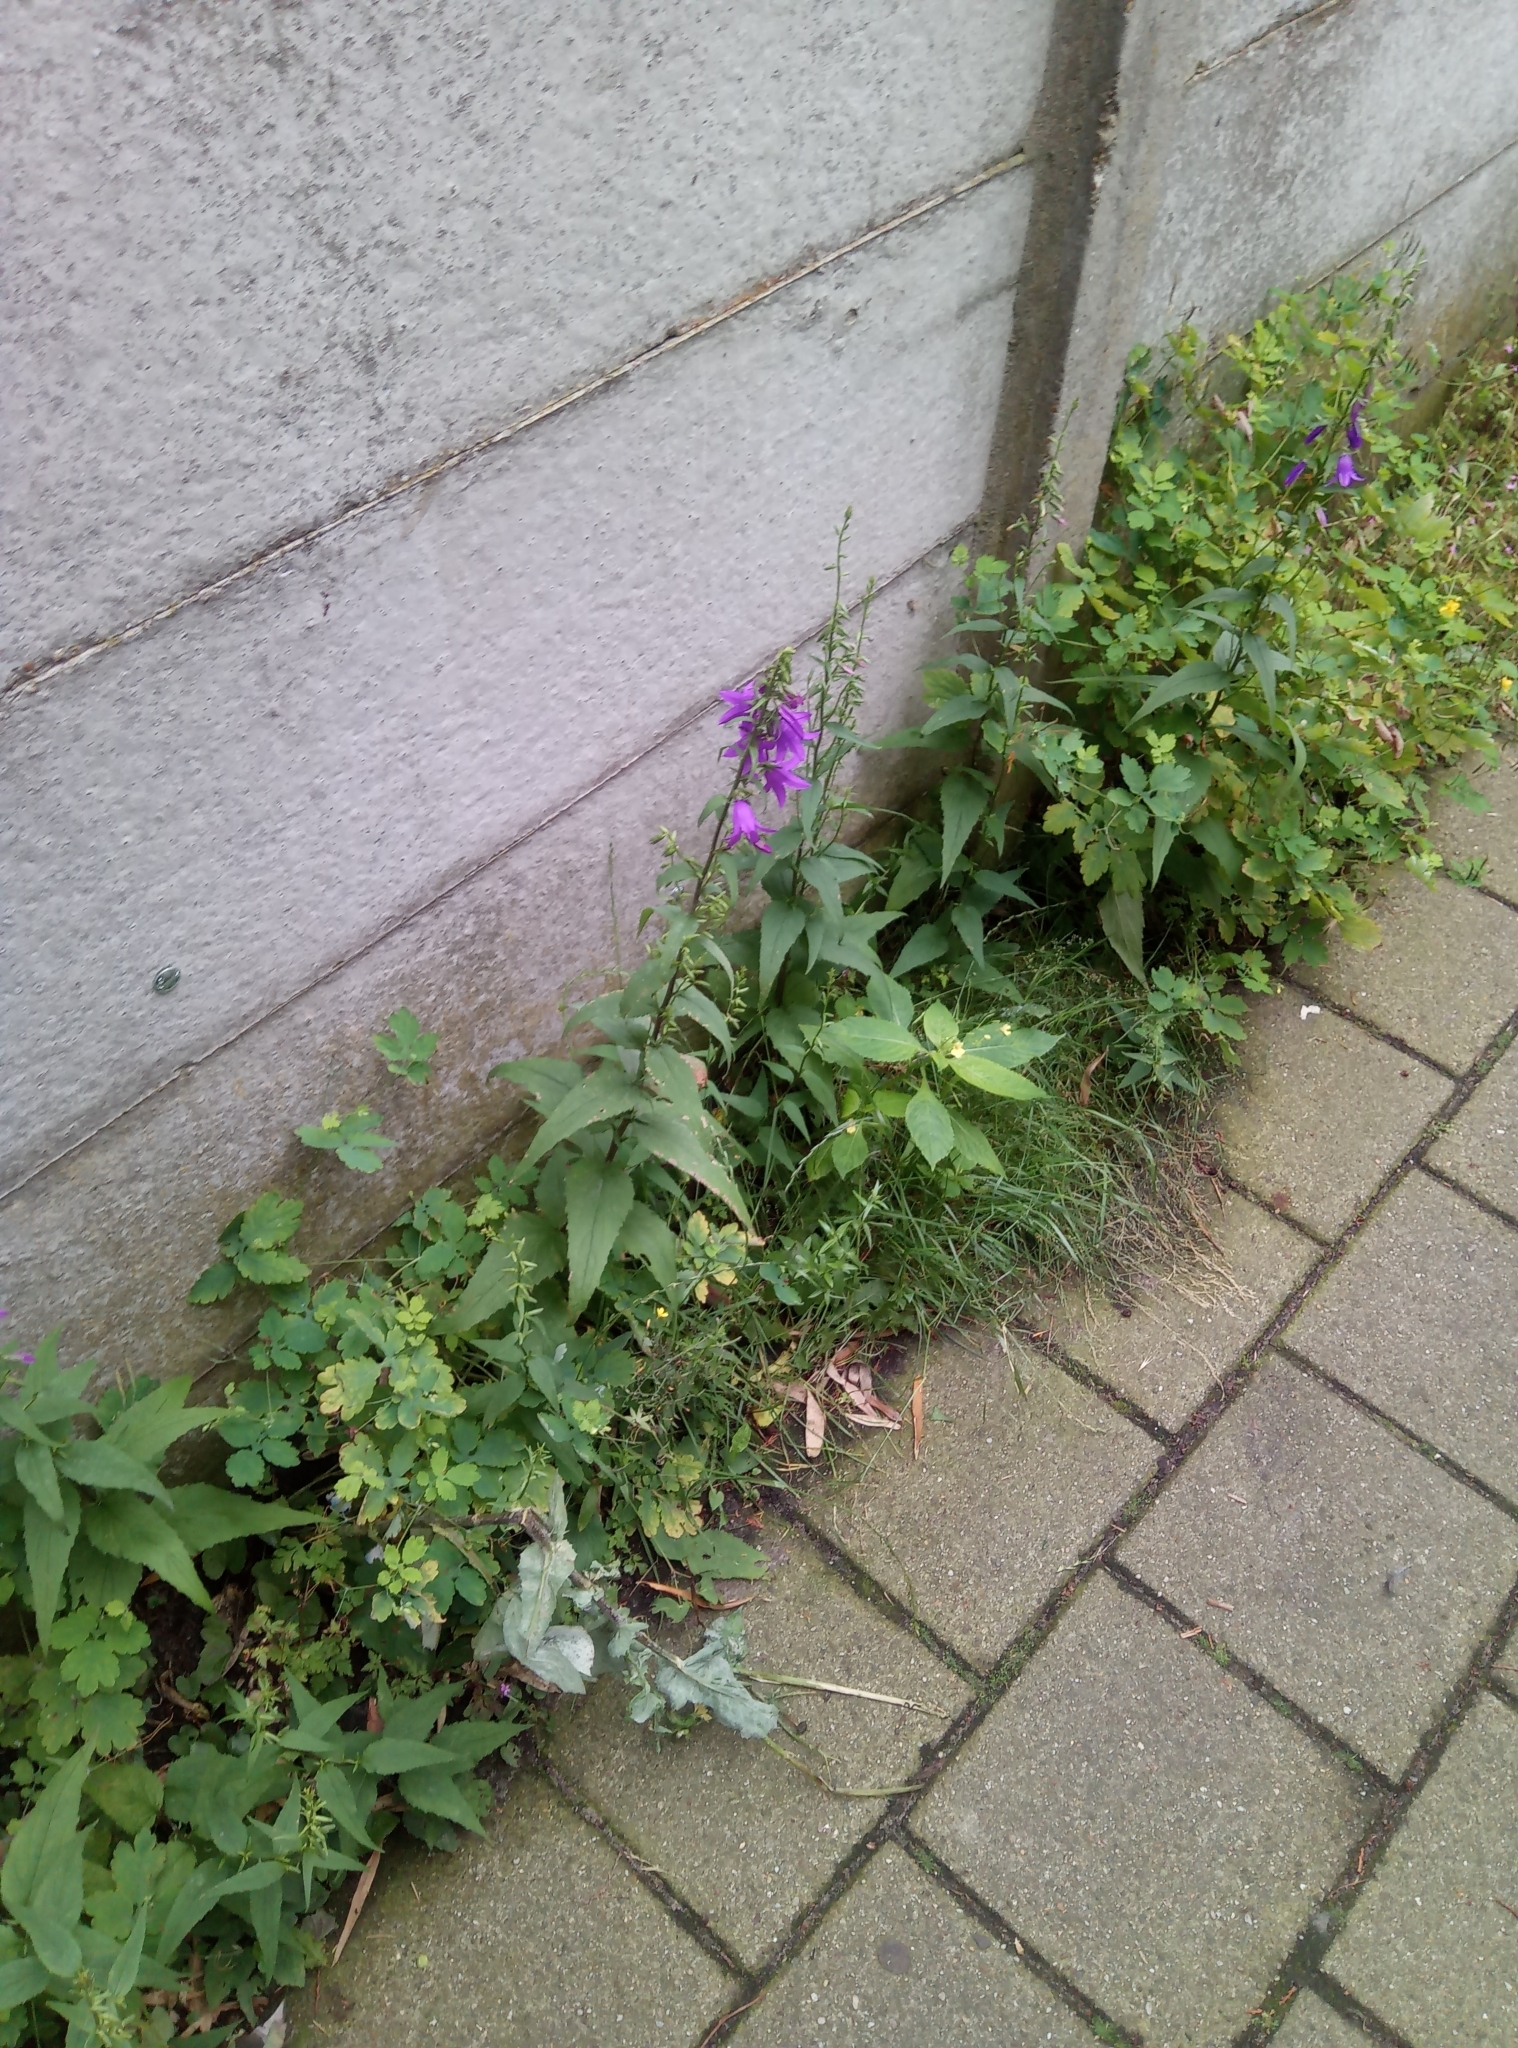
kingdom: Plantae
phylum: Tracheophyta
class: Magnoliopsida
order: Asterales
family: Campanulaceae
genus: Campanula
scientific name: Campanula rapunculoides
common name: Creeping bellflower
